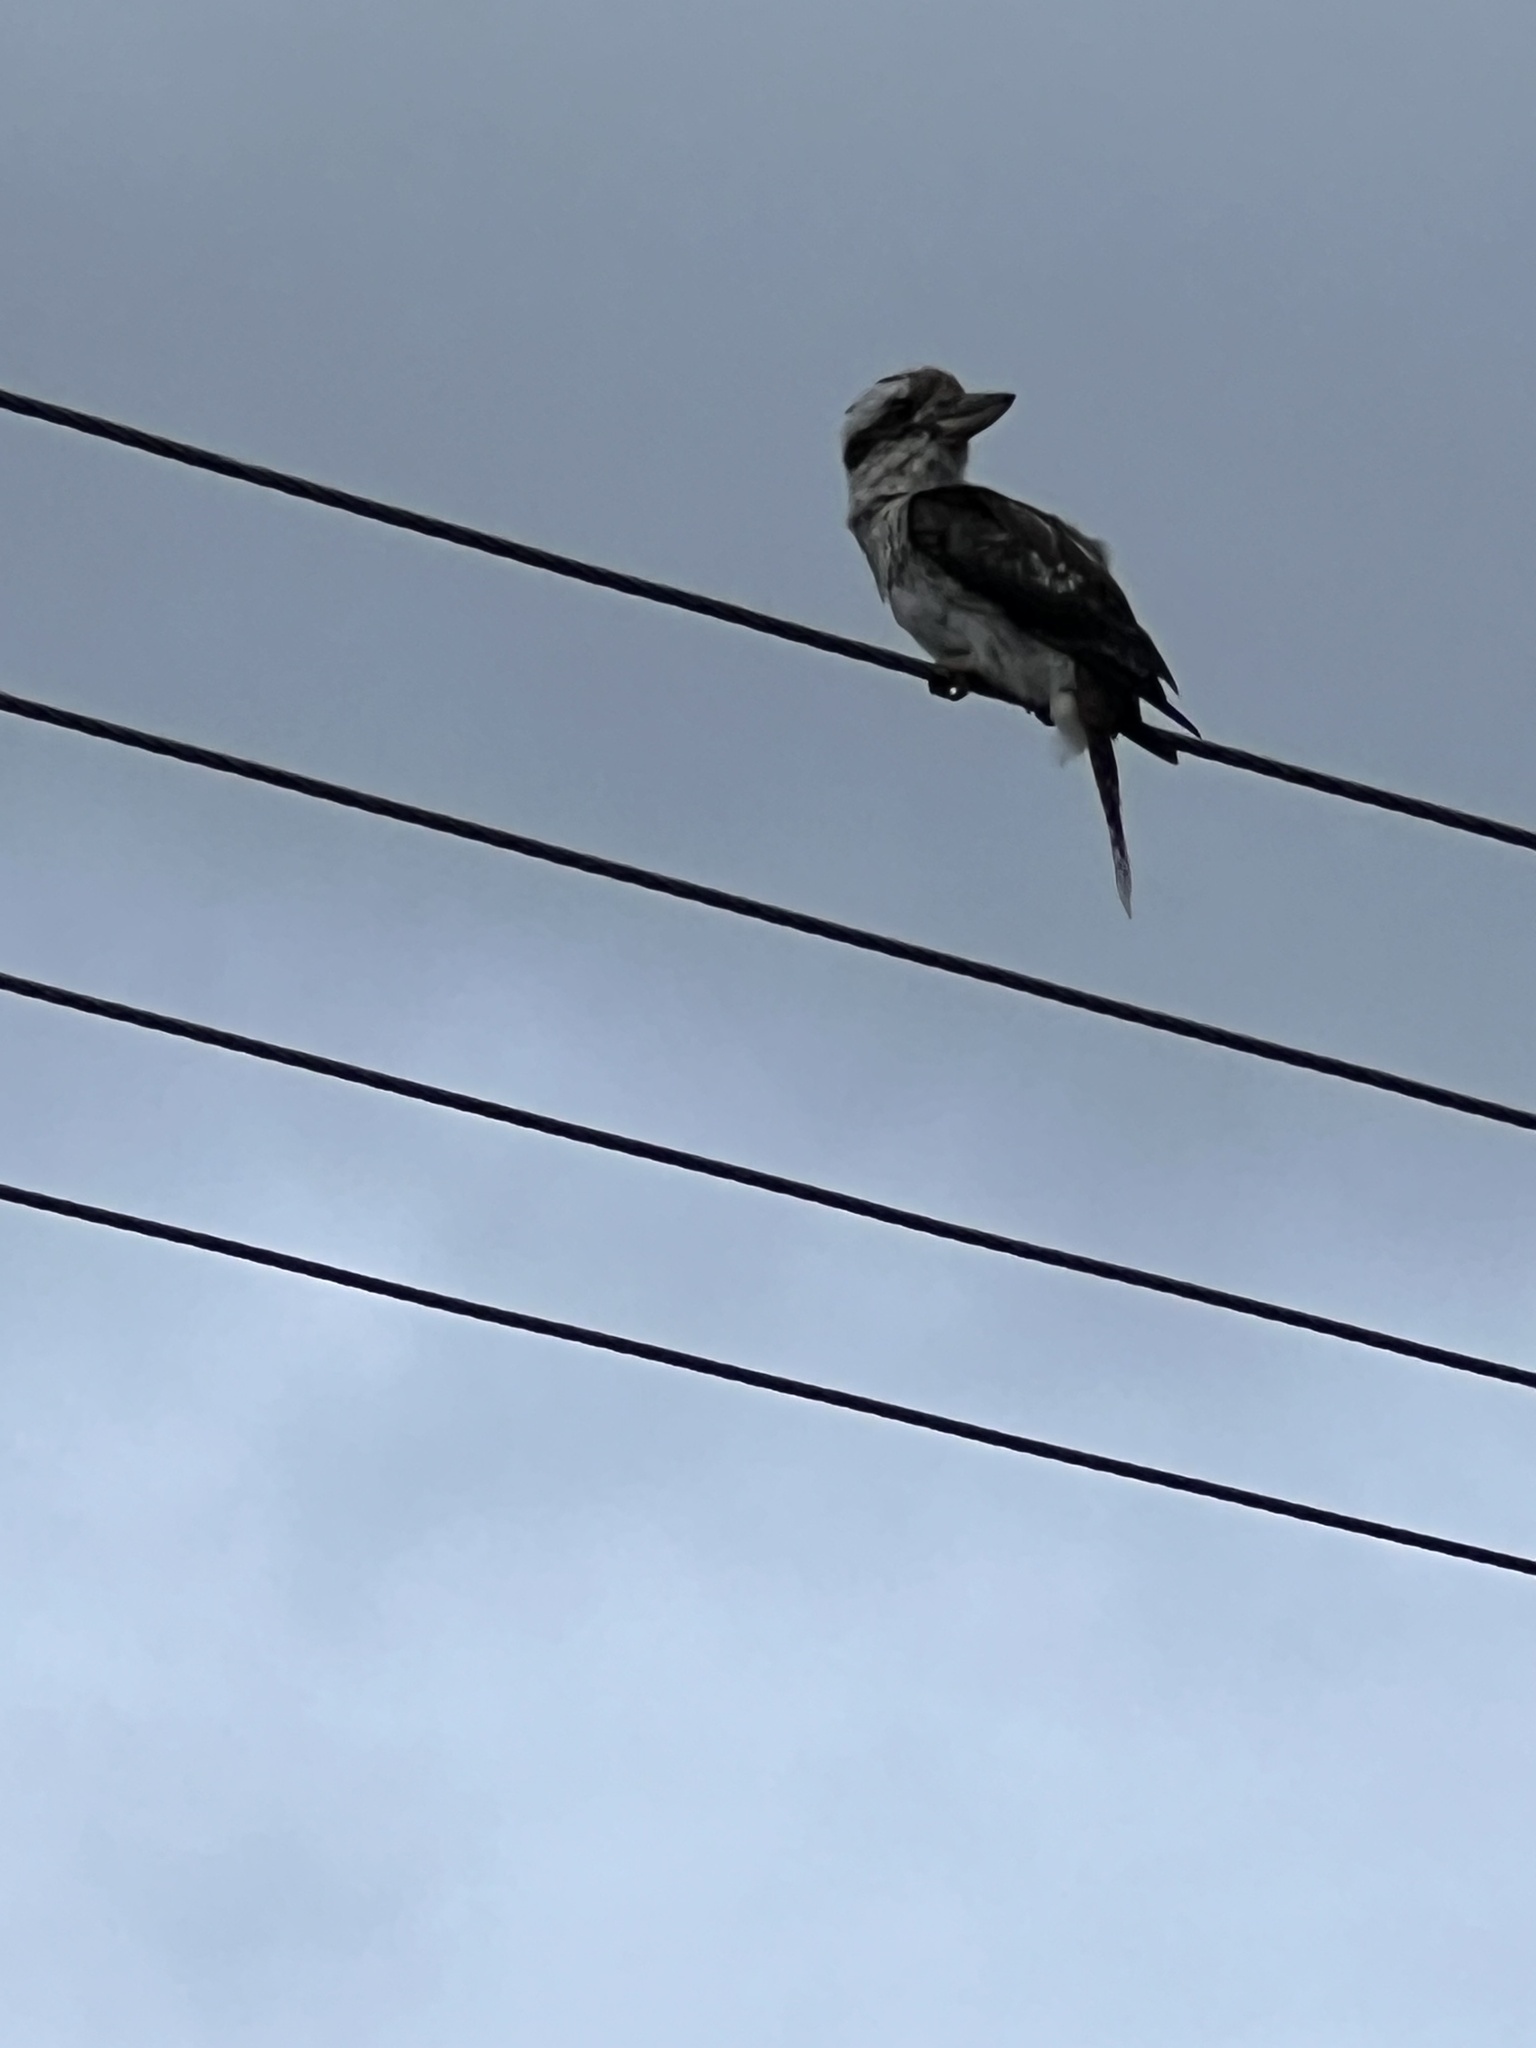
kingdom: Animalia
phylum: Chordata
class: Aves
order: Coraciiformes
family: Alcedinidae
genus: Dacelo
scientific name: Dacelo novaeguineae
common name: Laughing kookaburra
